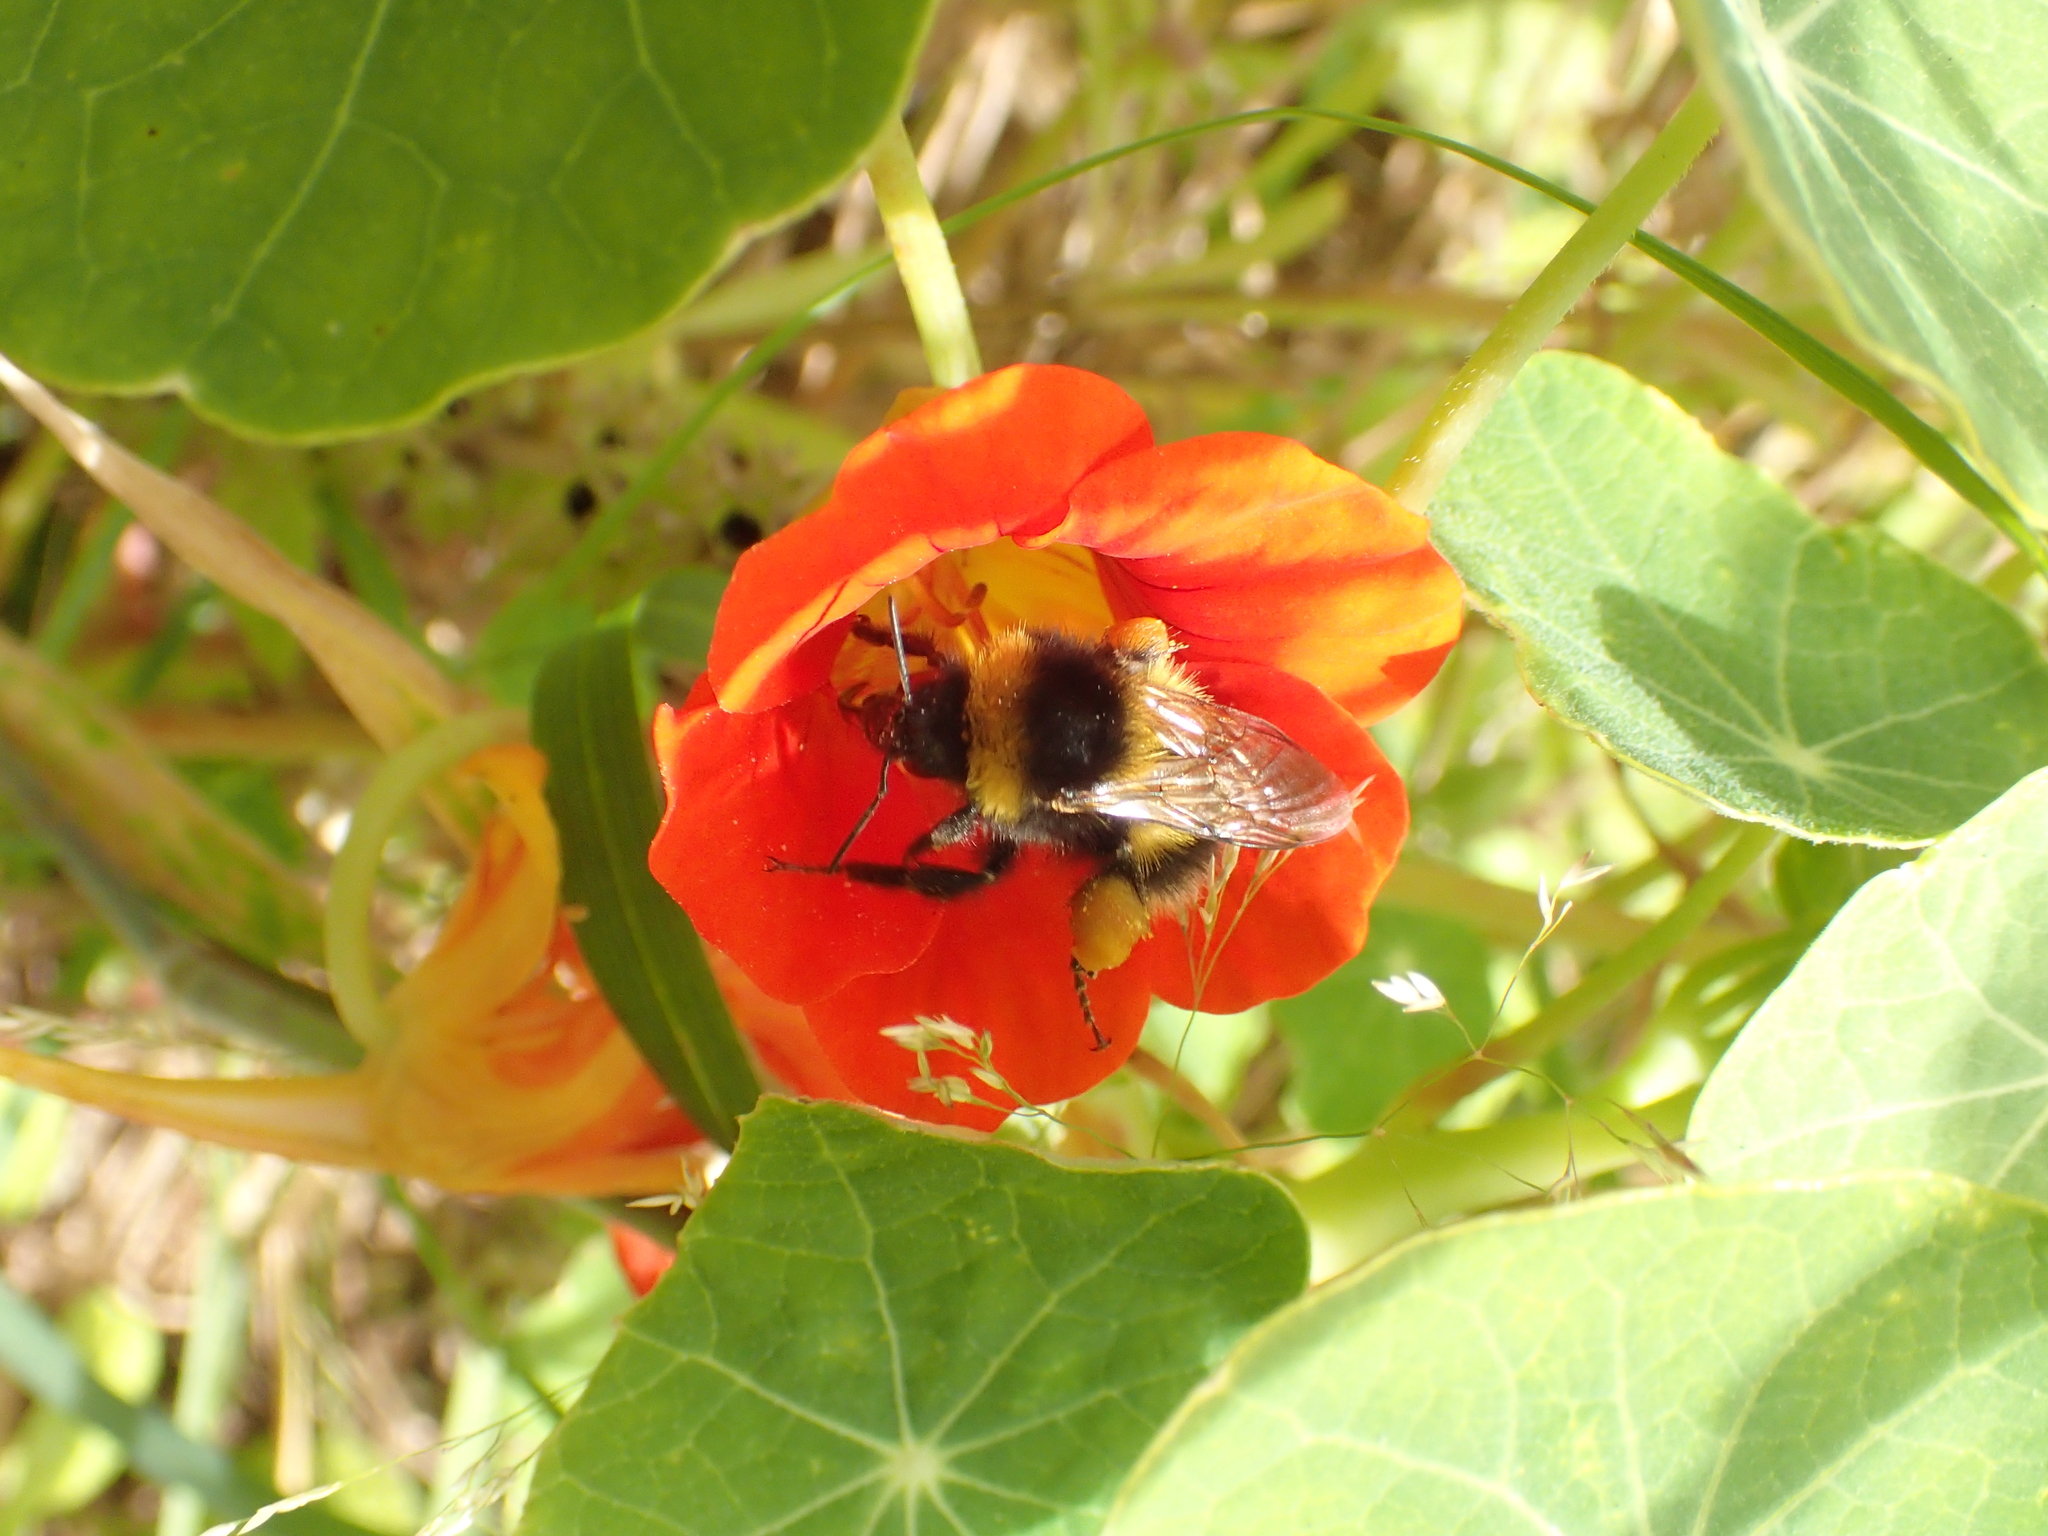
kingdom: Plantae
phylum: Tracheophyta
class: Magnoliopsida
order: Brassicales
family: Tropaeolaceae
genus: Tropaeolum
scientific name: Tropaeolum majus
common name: Nasturtium
